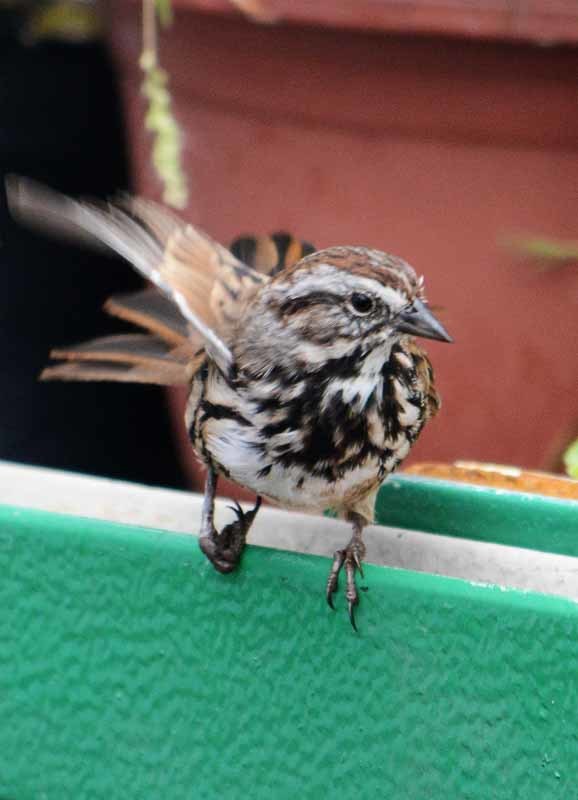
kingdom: Animalia
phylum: Chordata
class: Aves
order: Passeriformes
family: Passerellidae
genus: Melospiza
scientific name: Melospiza melodia
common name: Song sparrow
